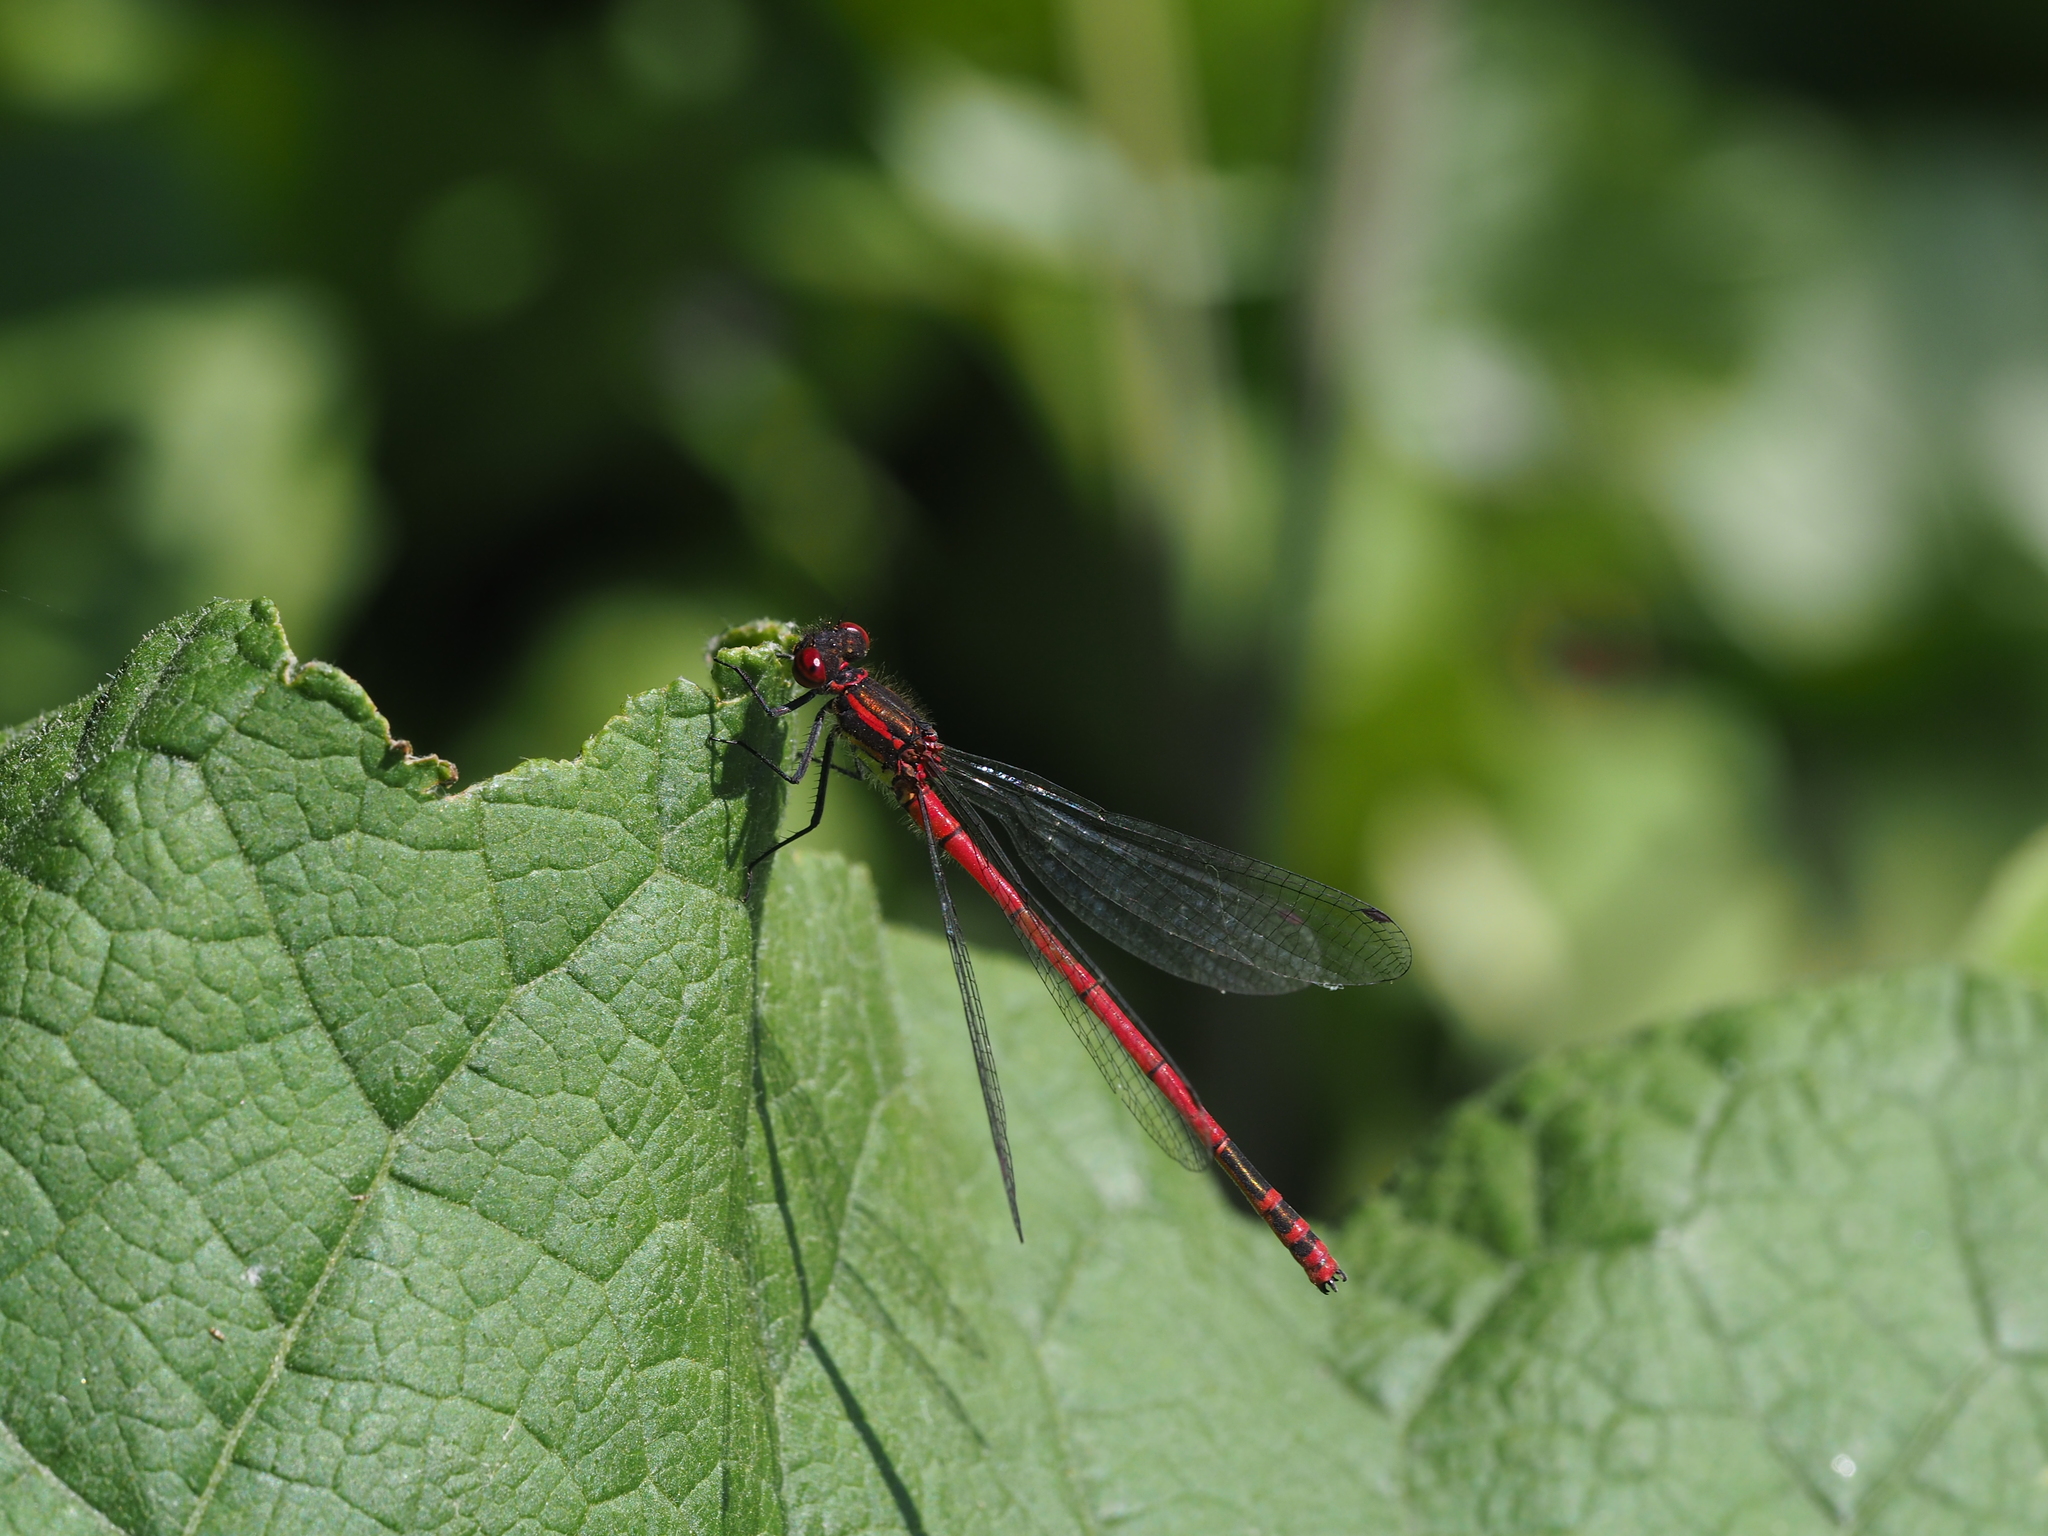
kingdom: Animalia
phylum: Arthropoda
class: Insecta
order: Odonata
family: Coenagrionidae
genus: Pyrrhosoma
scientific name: Pyrrhosoma nymphula
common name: Large red damsel
